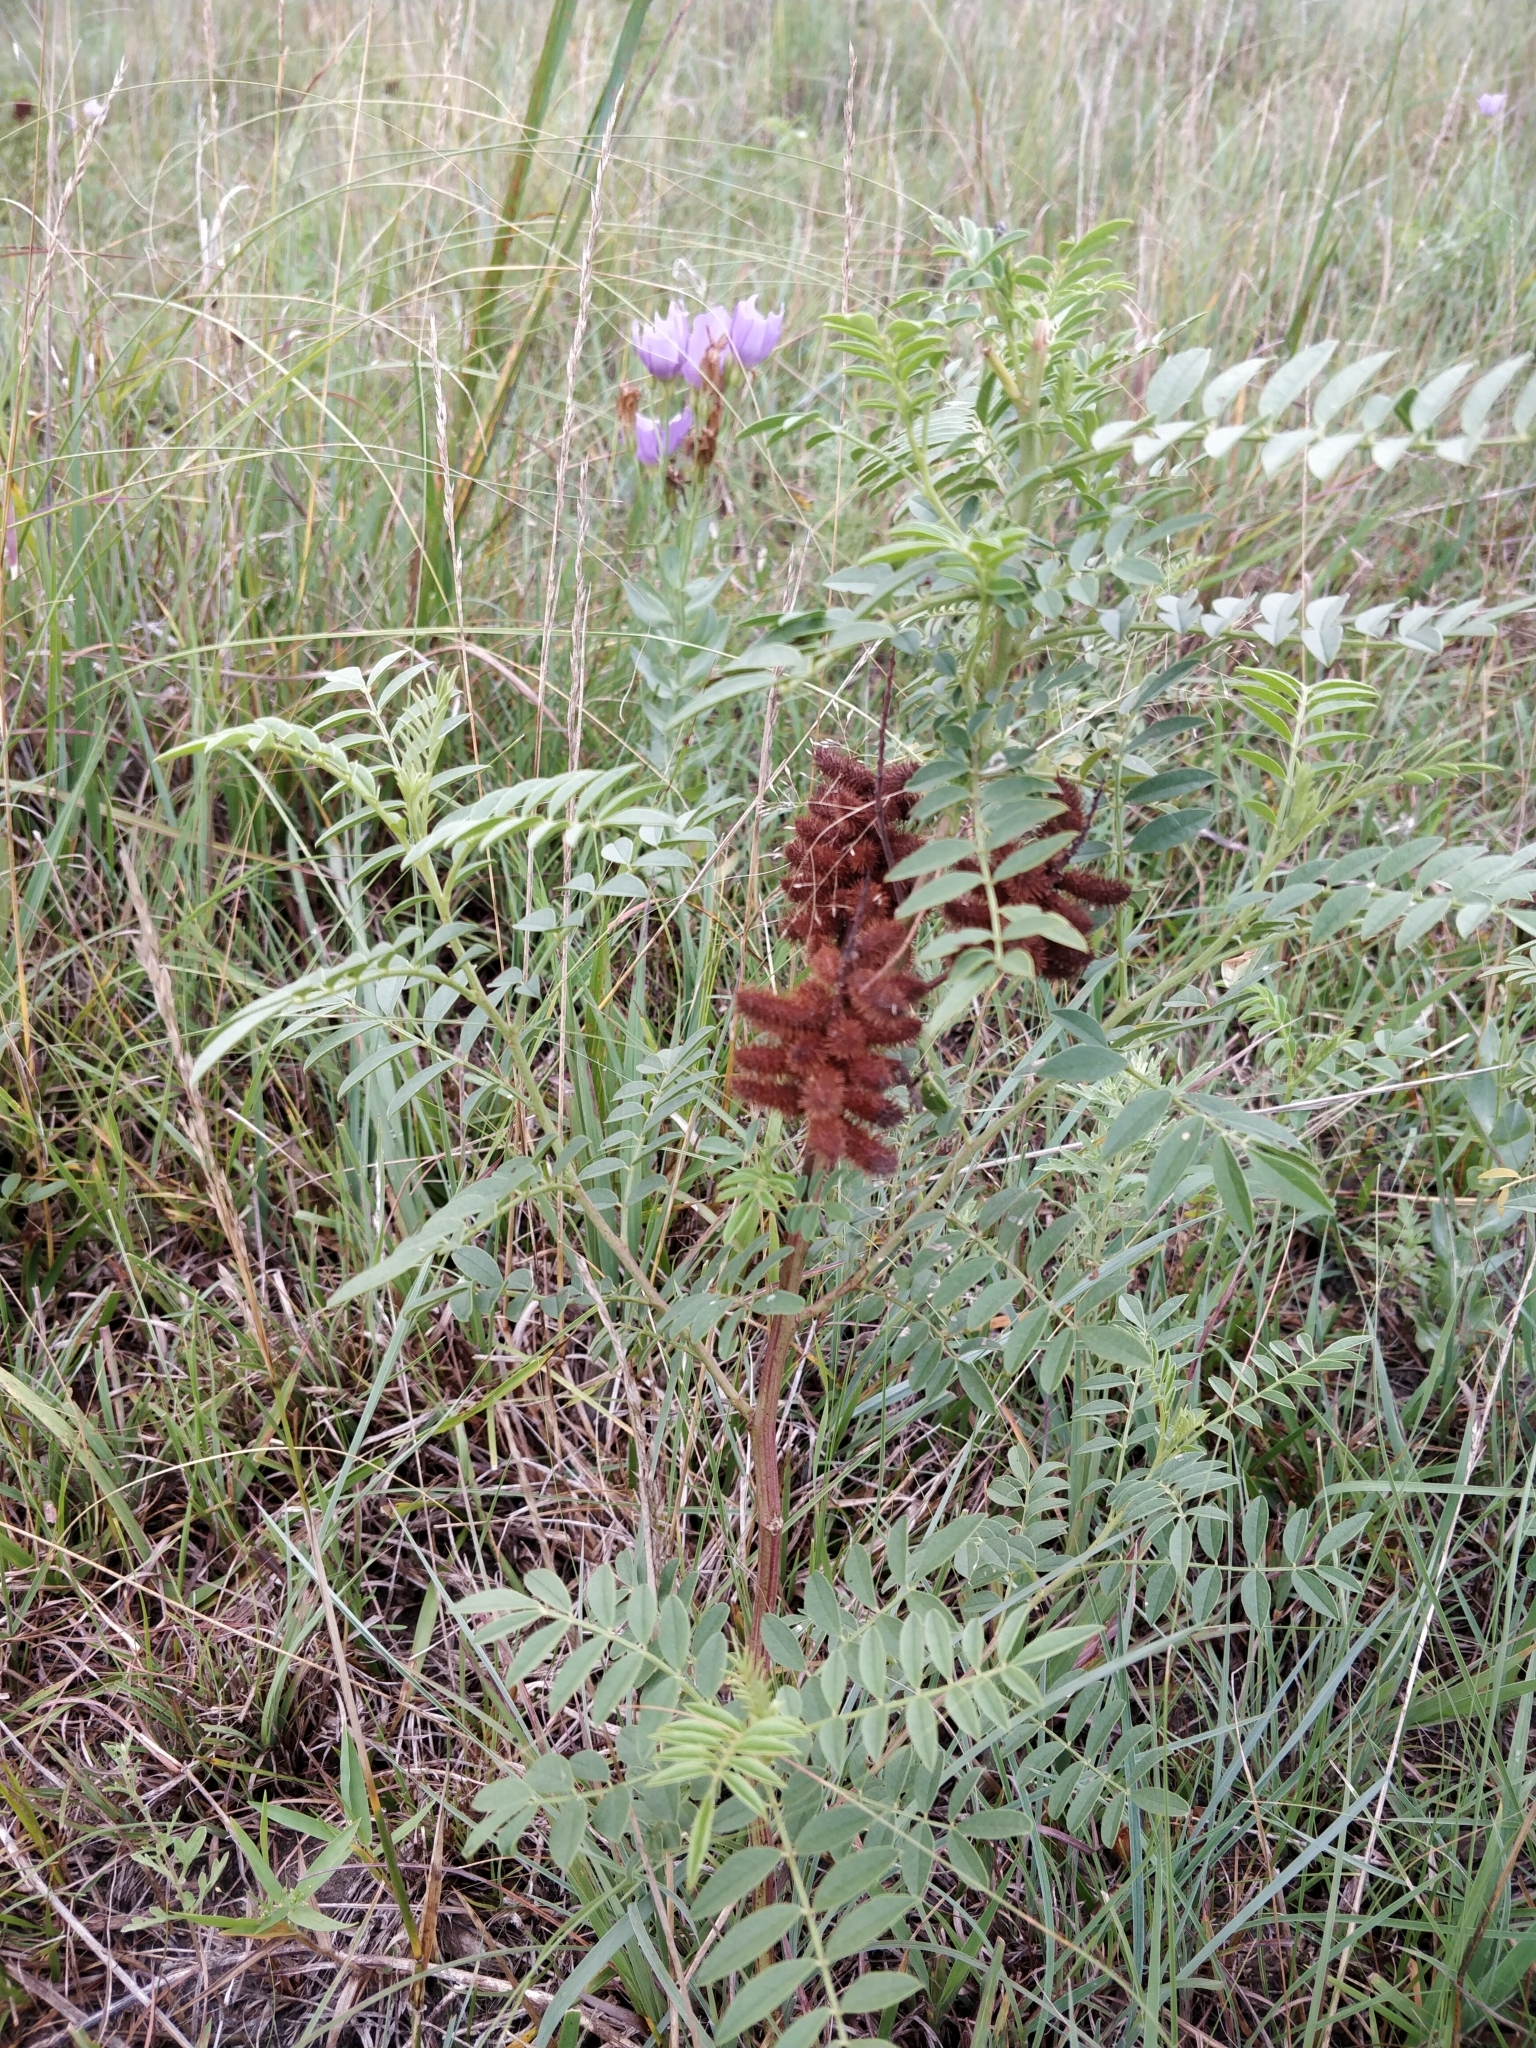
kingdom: Plantae
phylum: Tracheophyta
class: Magnoliopsida
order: Fabales
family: Fabaceae
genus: Glycyrrhiza
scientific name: Glycyrrhiza lepidota
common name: American liquorice
